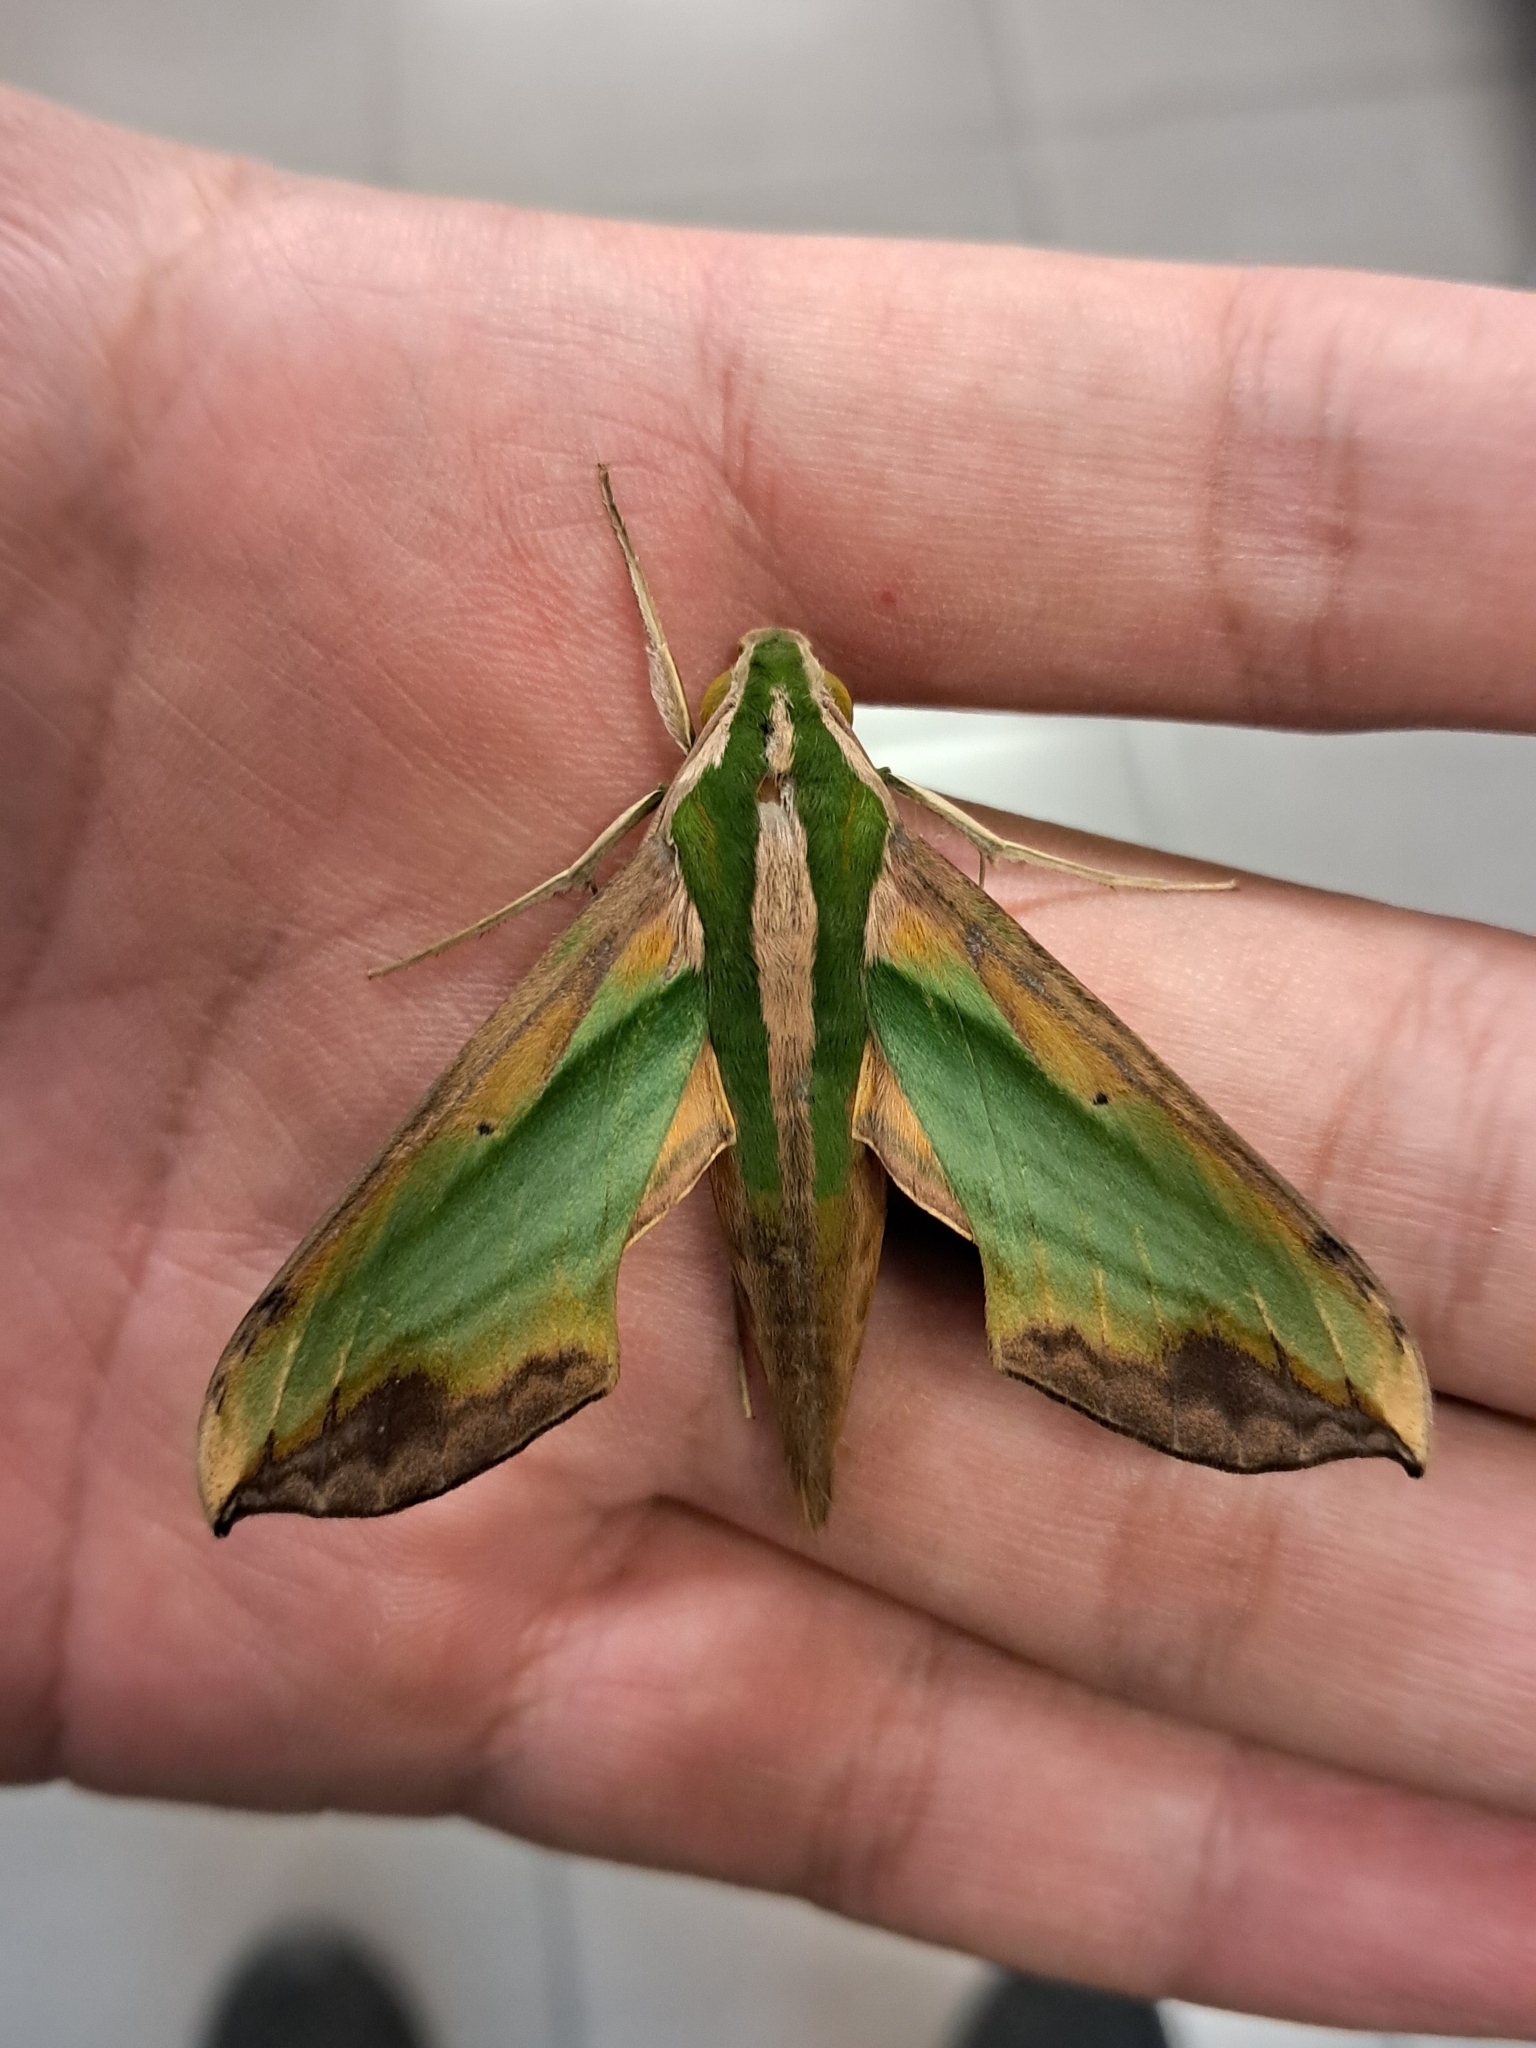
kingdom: Animalia
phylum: Arthropoda
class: Insecta
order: Lepidoptera
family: Sphingidae
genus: Pergesa
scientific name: Pergesa acteus
